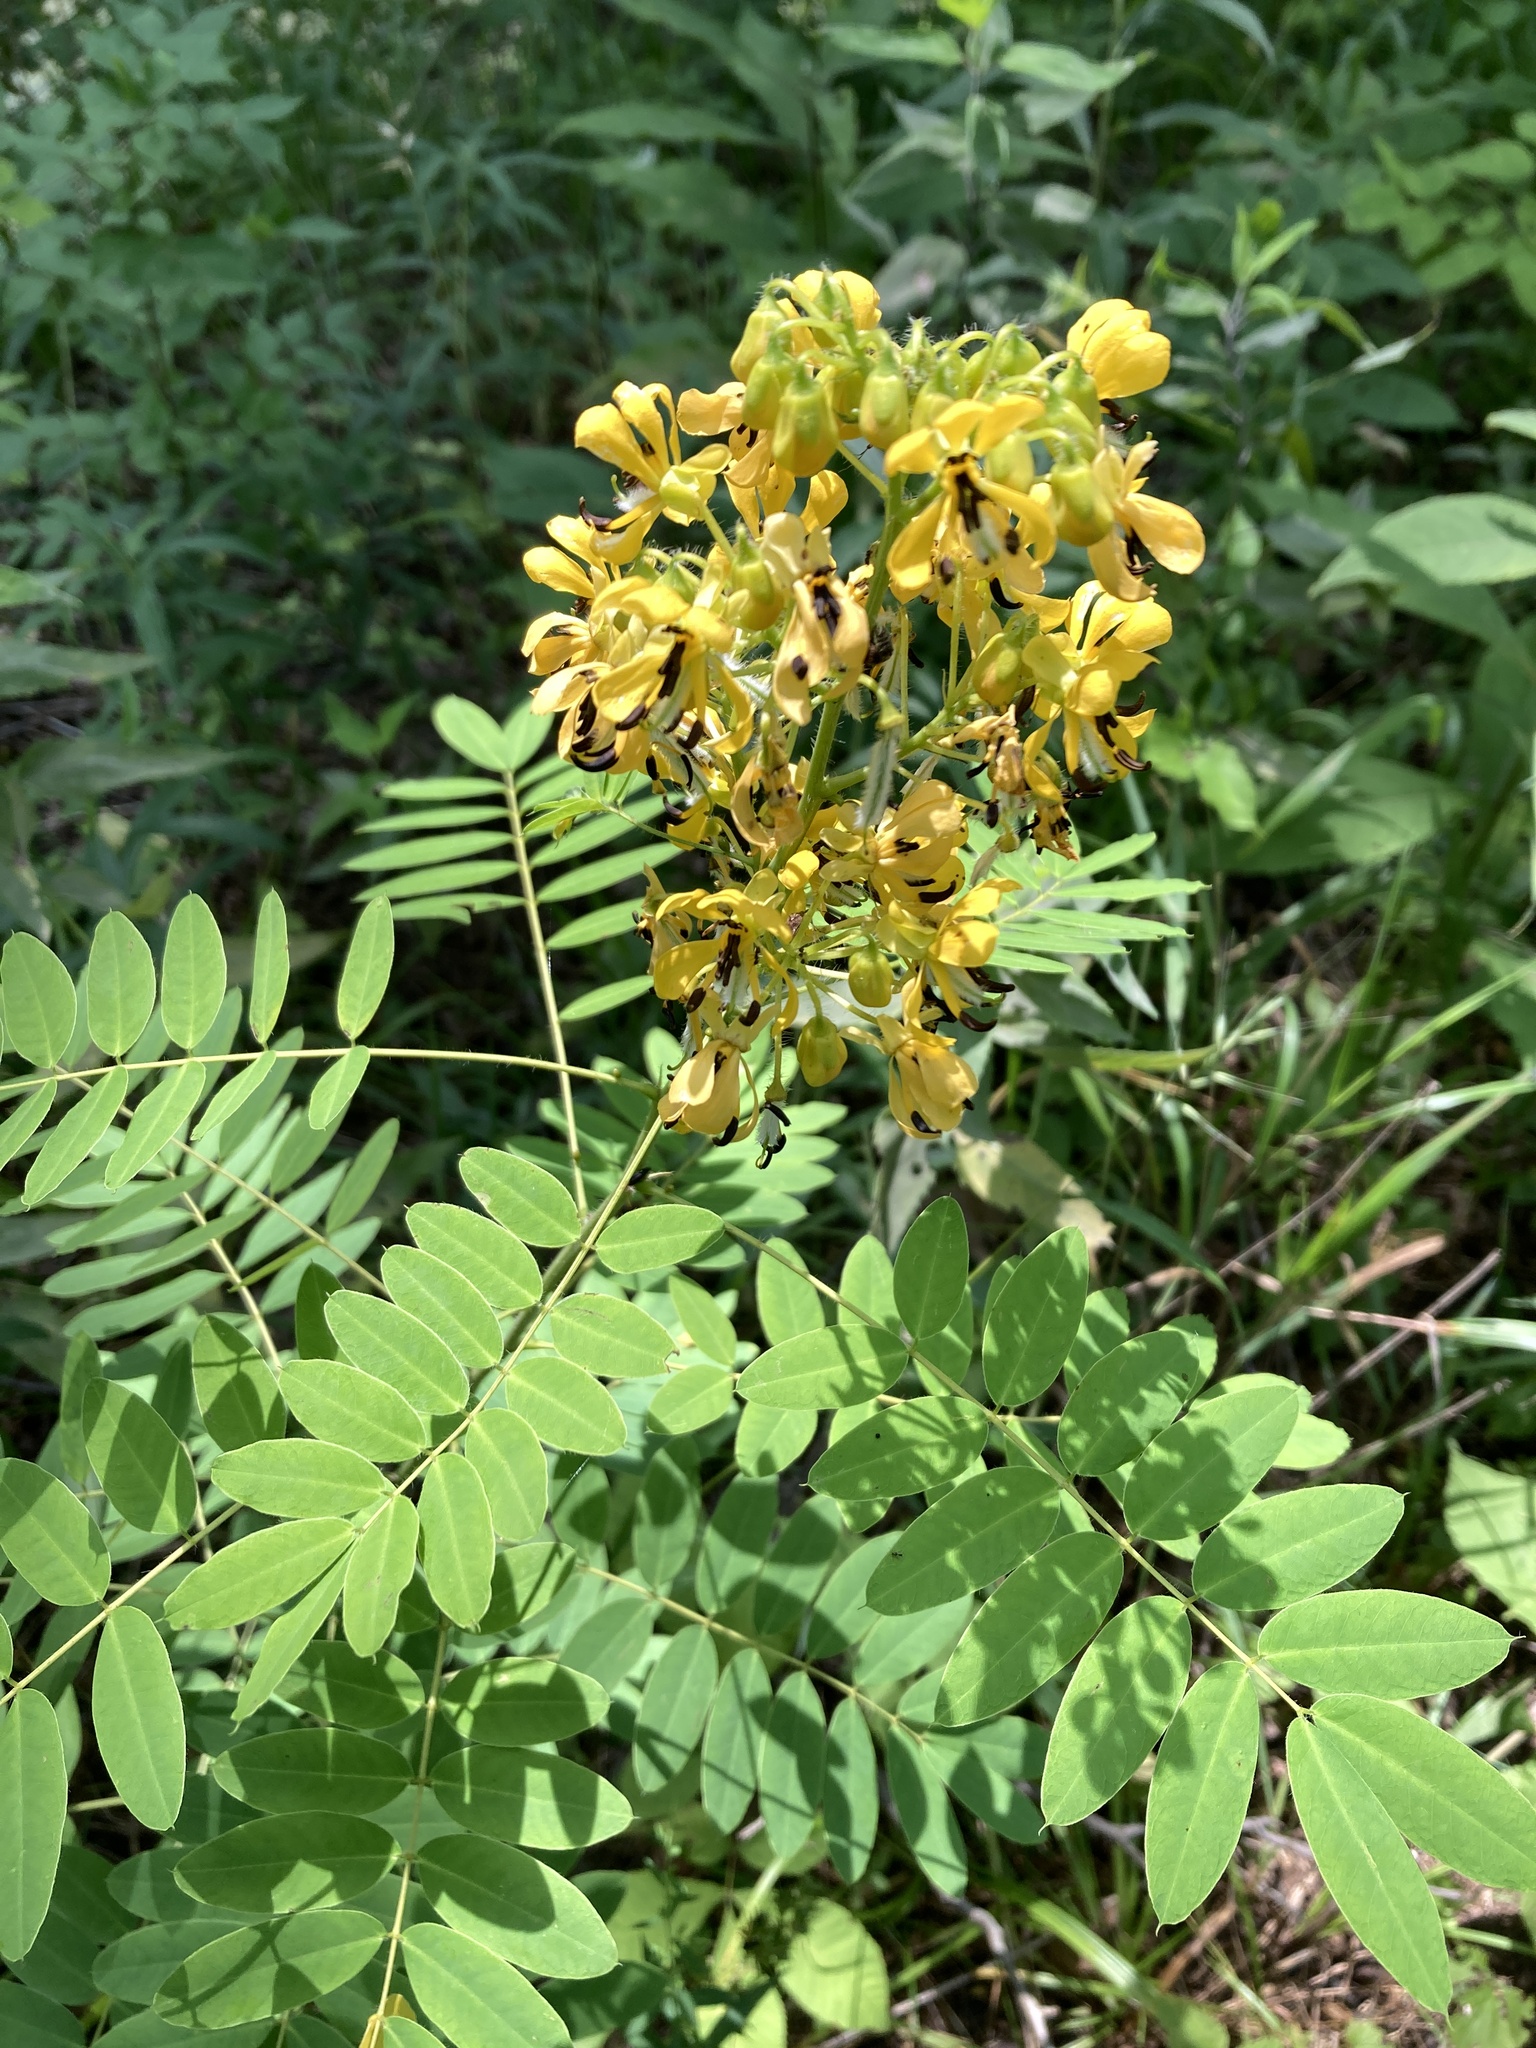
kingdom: Plantae
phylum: Tracheophyta
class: Magnoliopsida
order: Fabales
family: Fabaceae
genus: Senna
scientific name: Senna hebecarpa
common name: Wild senna
